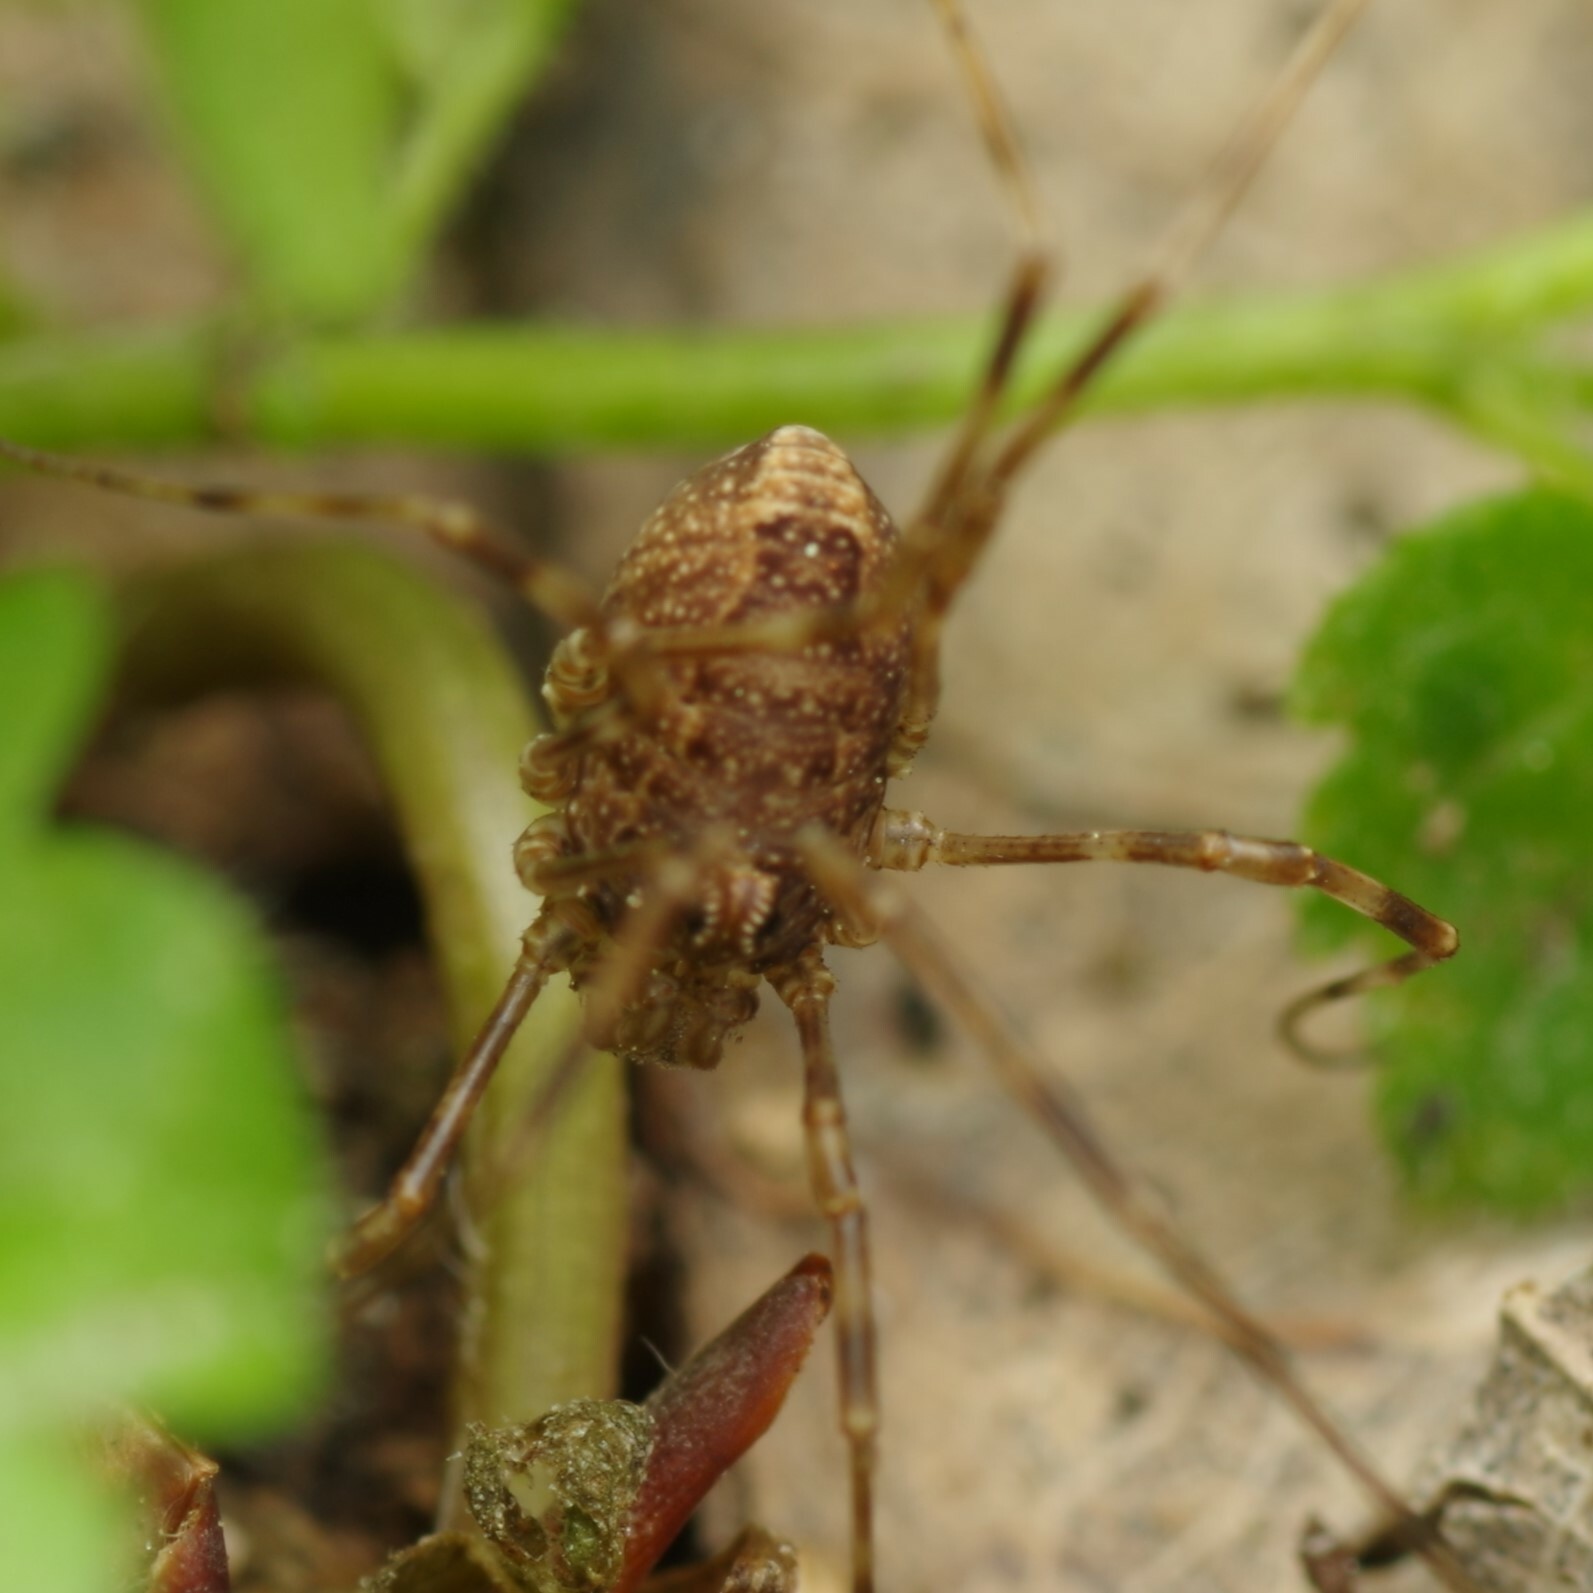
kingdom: Animalia
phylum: Arthropoda
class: Arachnida
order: Opiliones
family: Phalangiidae
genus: Rilaena
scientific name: Rilaena triangularis
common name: Spring harvestman
